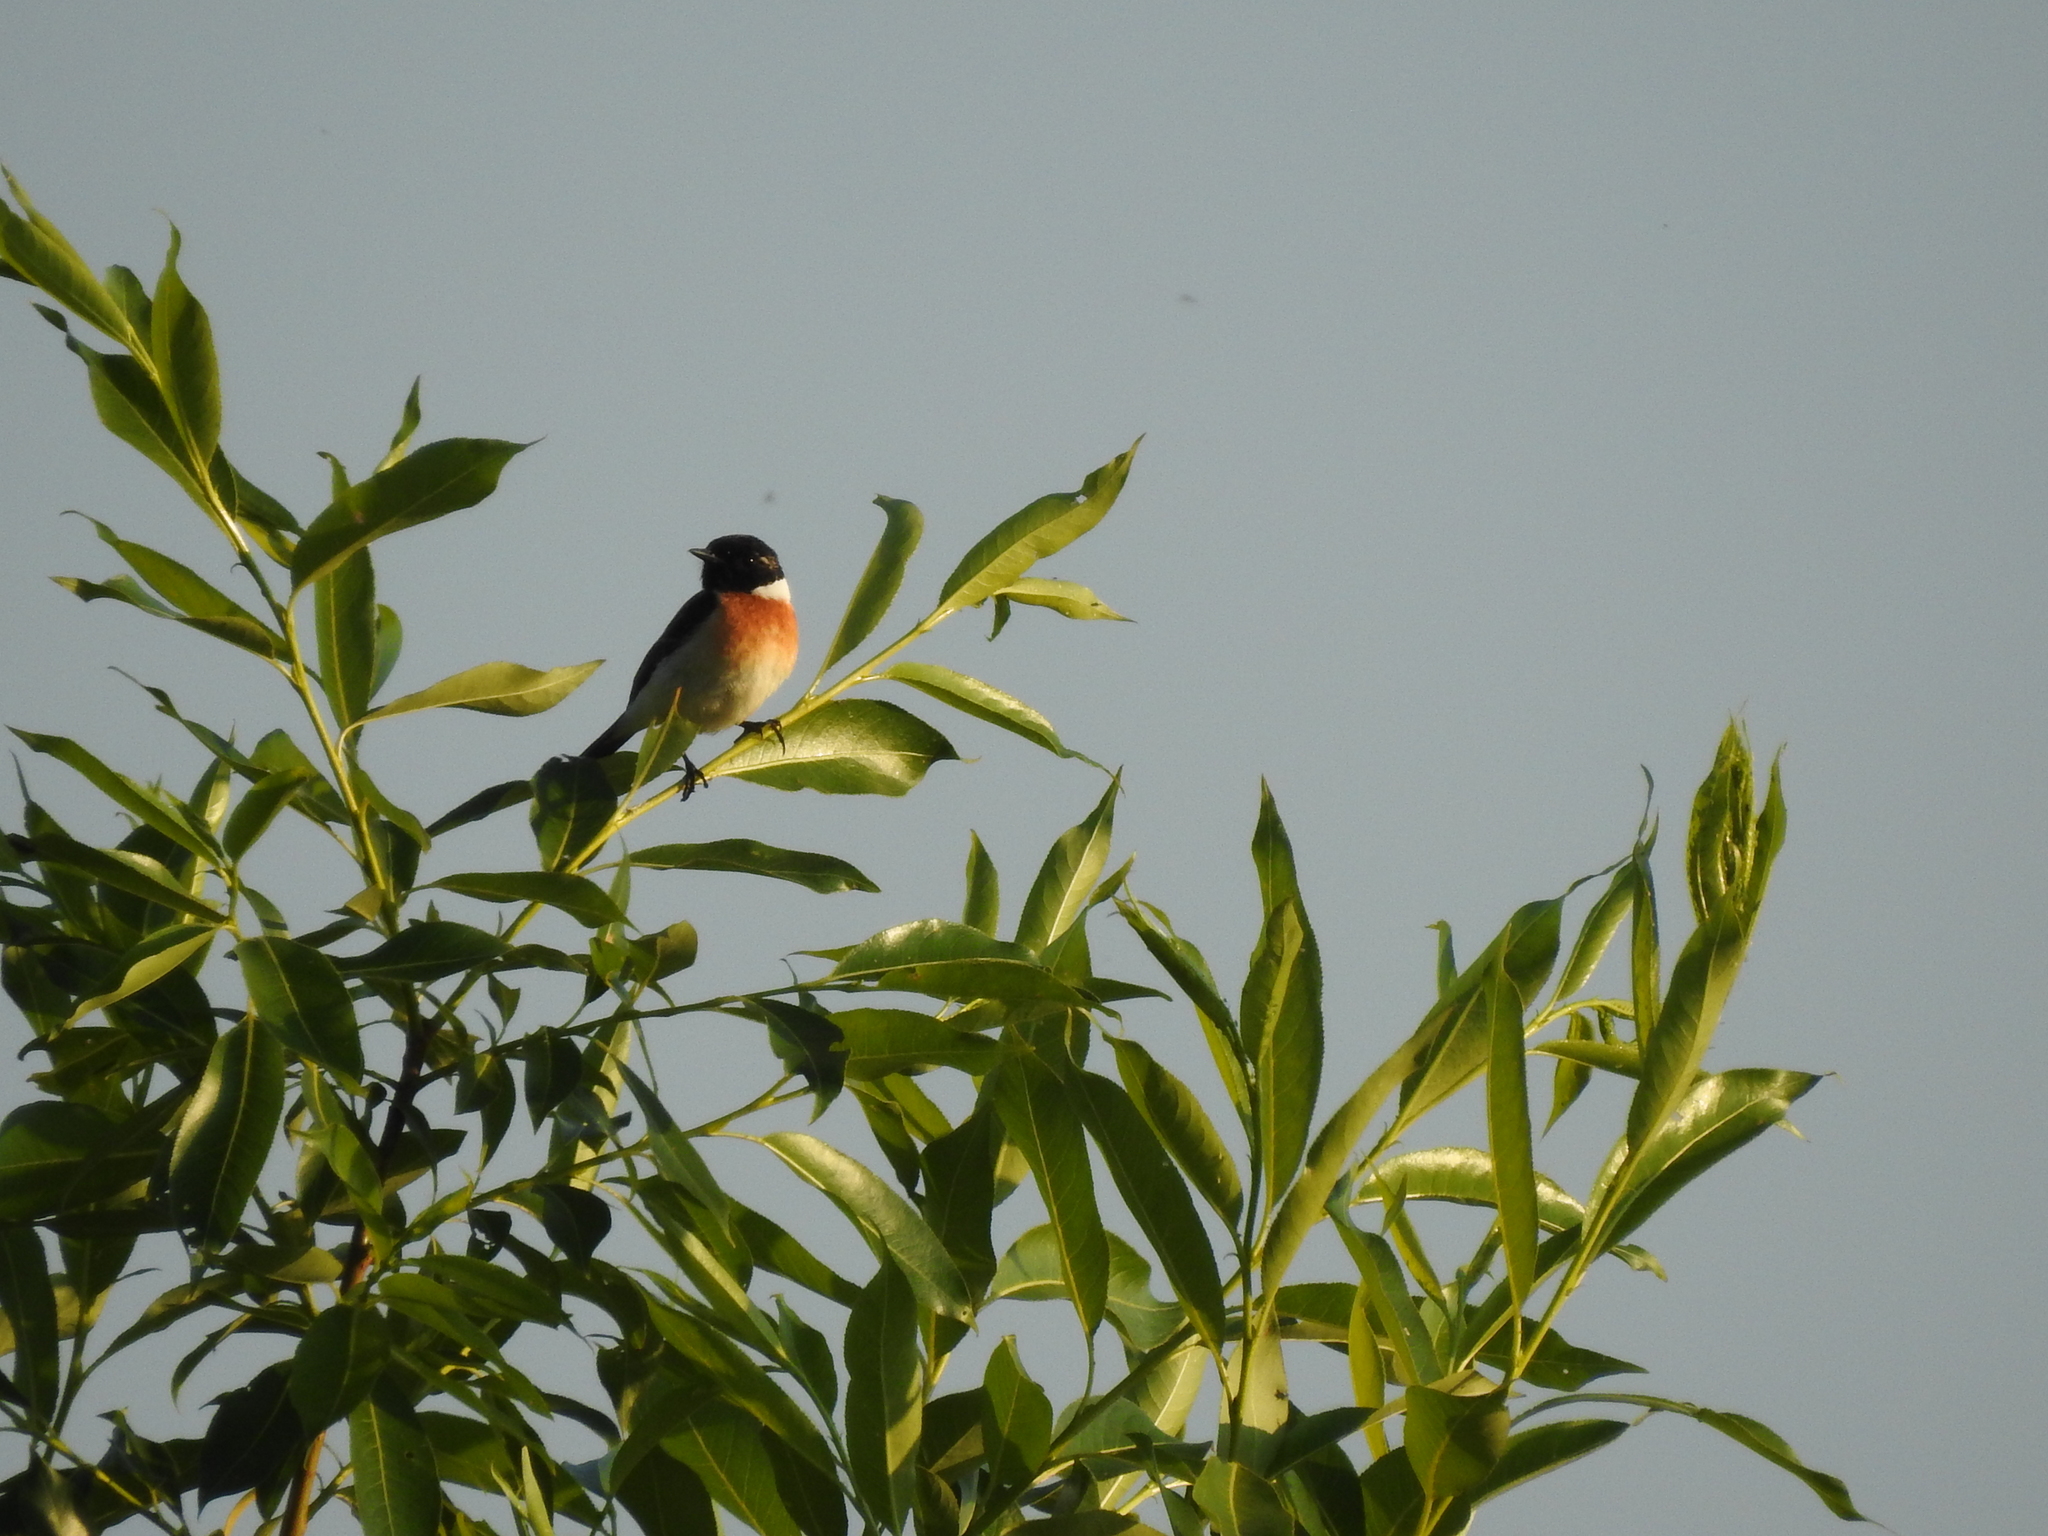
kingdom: Animalia
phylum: Chordata
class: Aves
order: Passeriformes
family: Muscicapidae
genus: Saxicola
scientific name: Saxicola maurus
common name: Siberian stonechat
